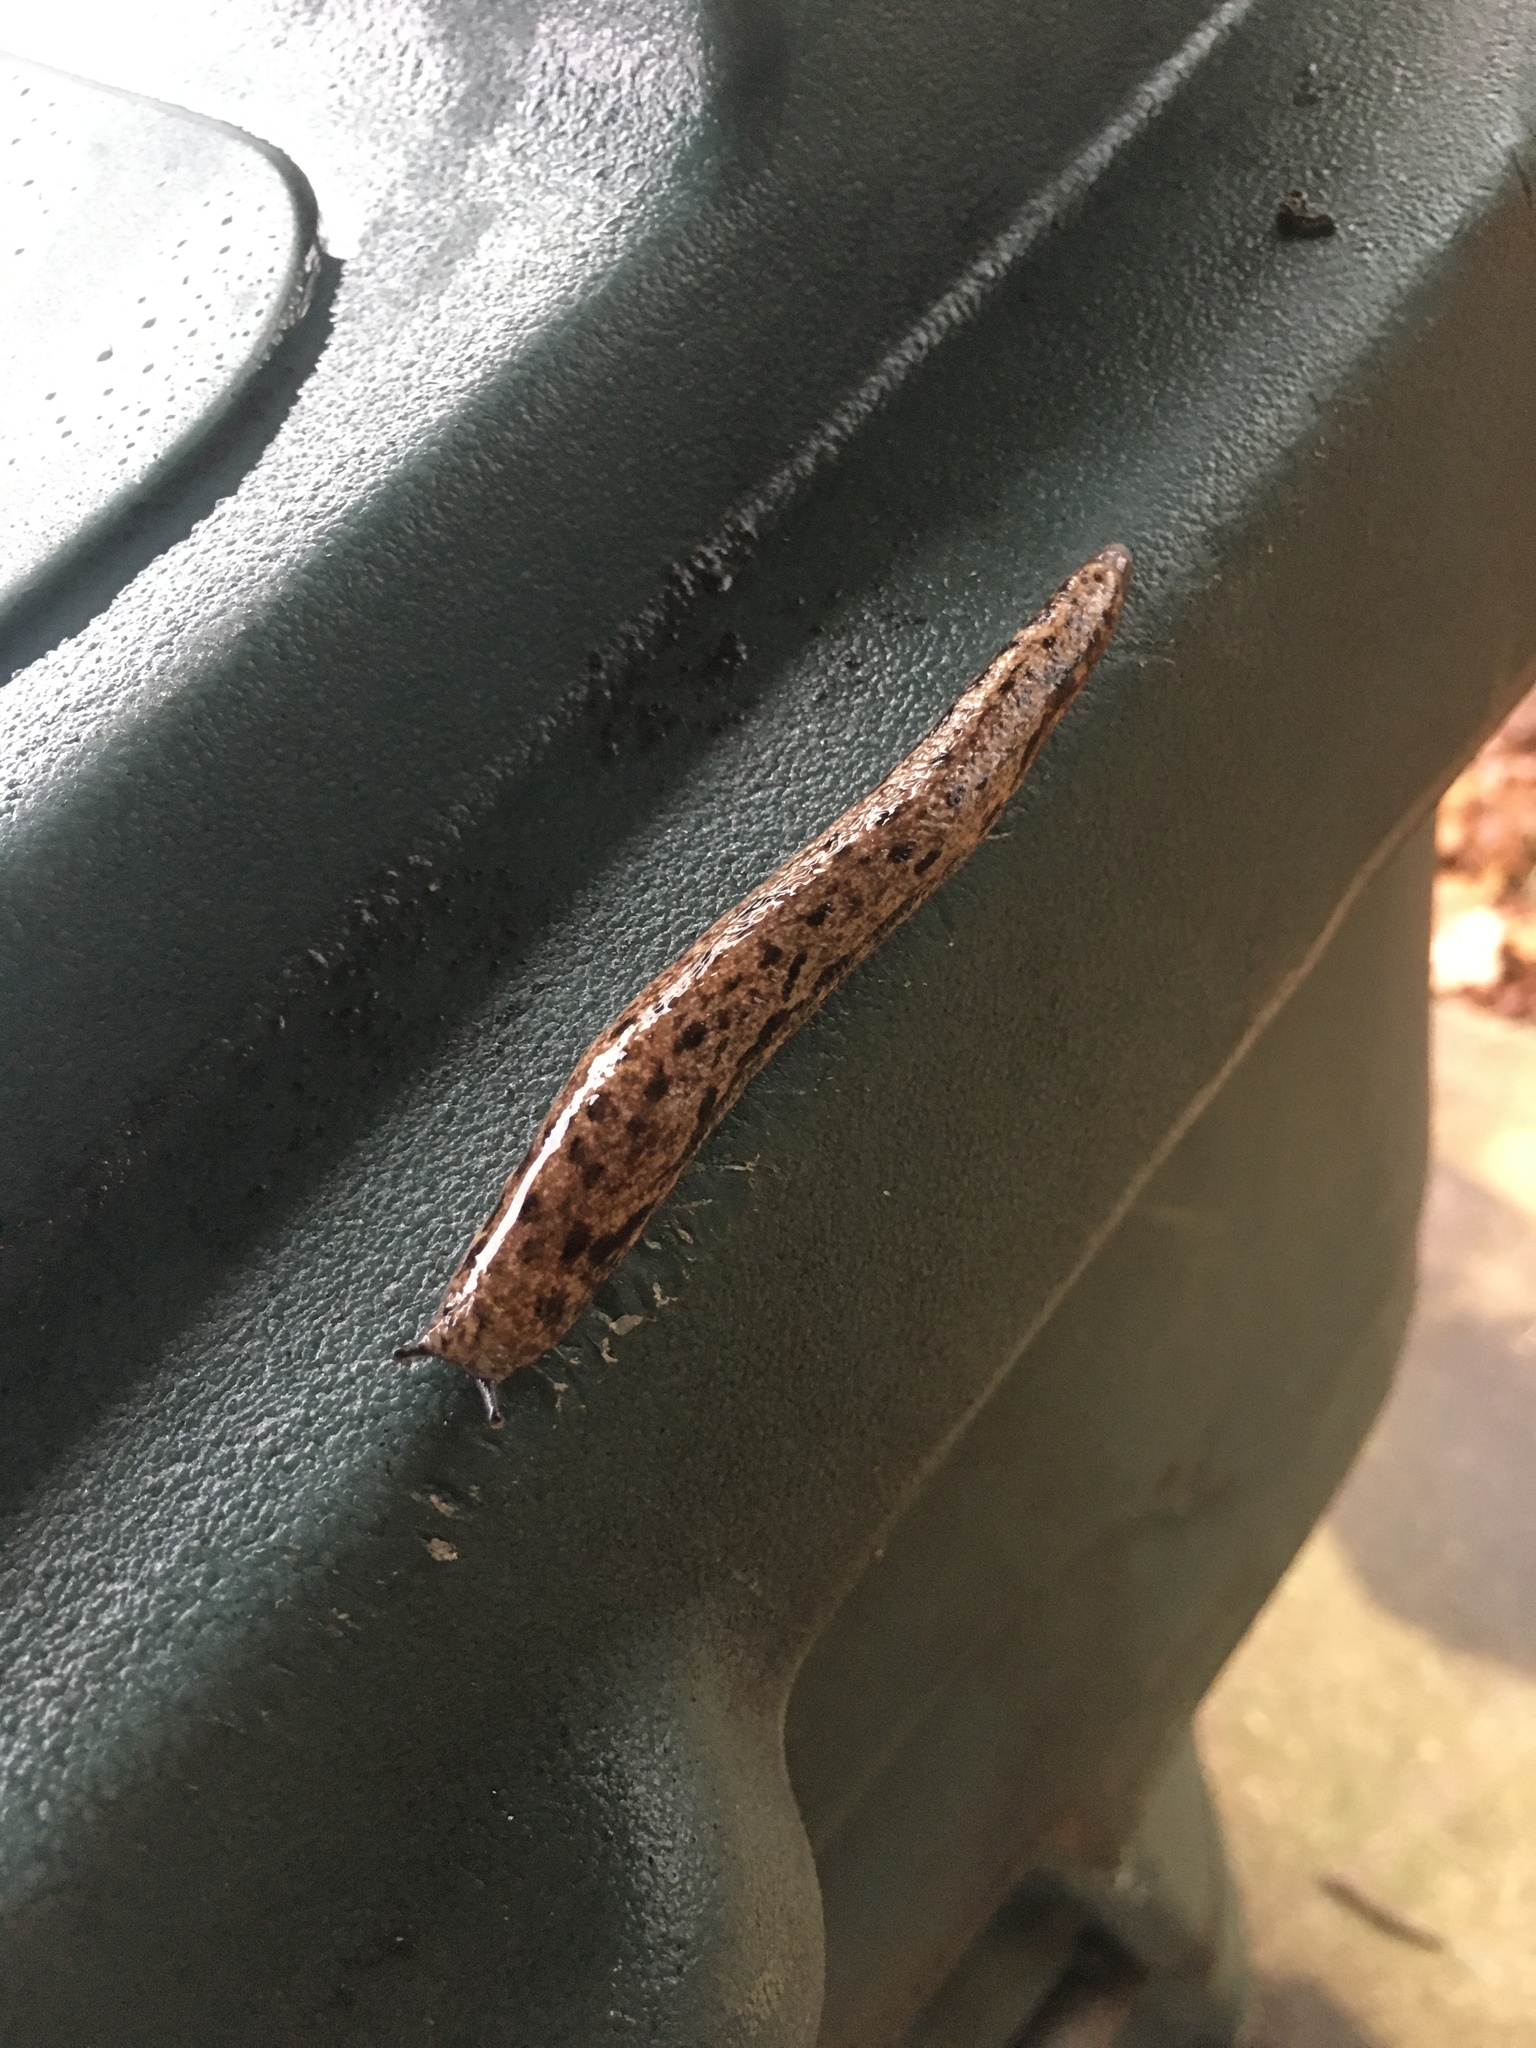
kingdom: Animalia
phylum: Mollusca
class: Gastropoda
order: Stylommatophora
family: Philomycidae
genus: Megapallifera
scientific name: Megapallifera mutabilis
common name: Changeable mantleslug
